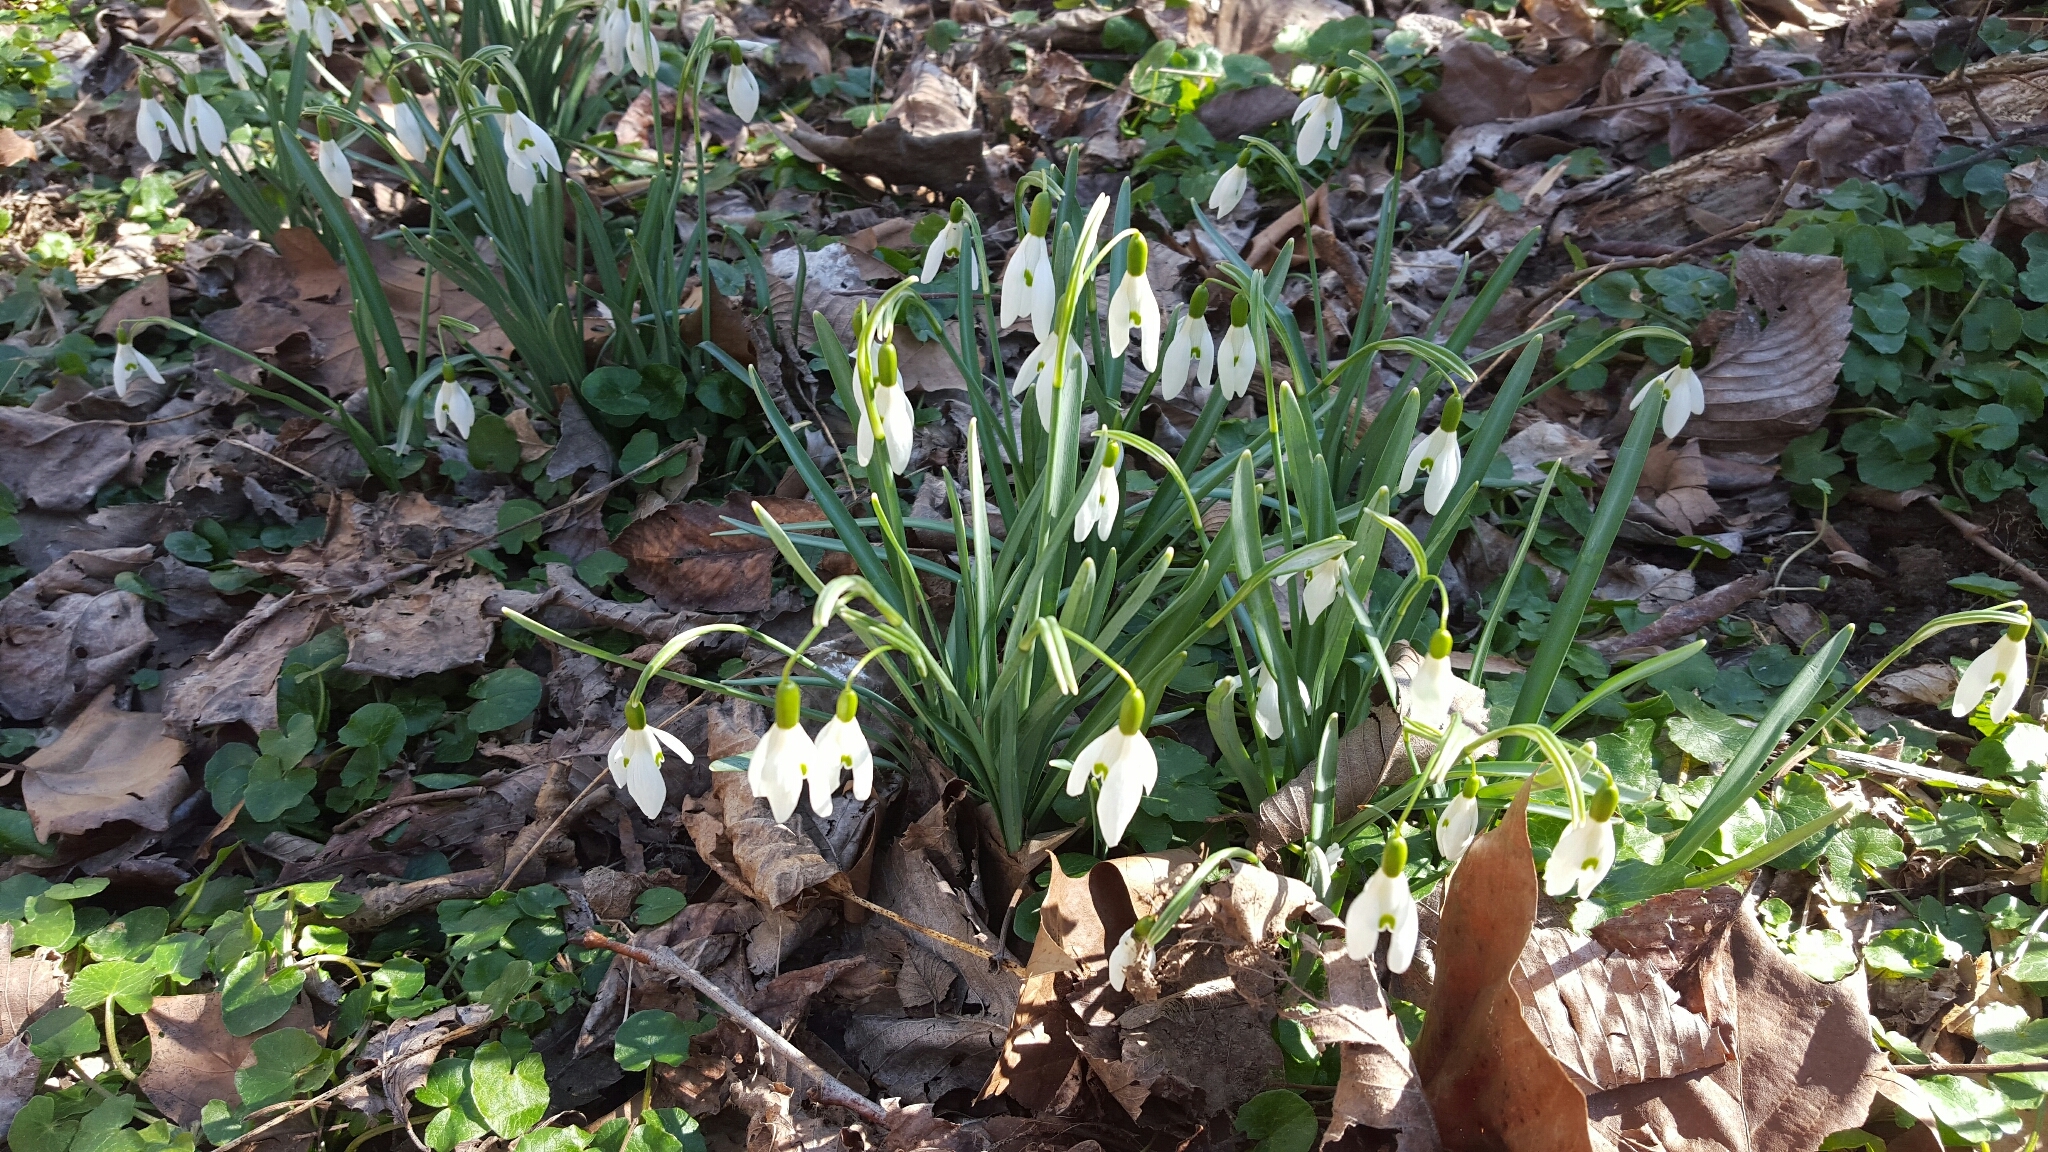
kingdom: Plantae
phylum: Tracheophyta
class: Liliopsida
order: Asparagales
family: Amaryllidaceae
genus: Galanthus
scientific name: Galanthus nivalis
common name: Snowdrop
